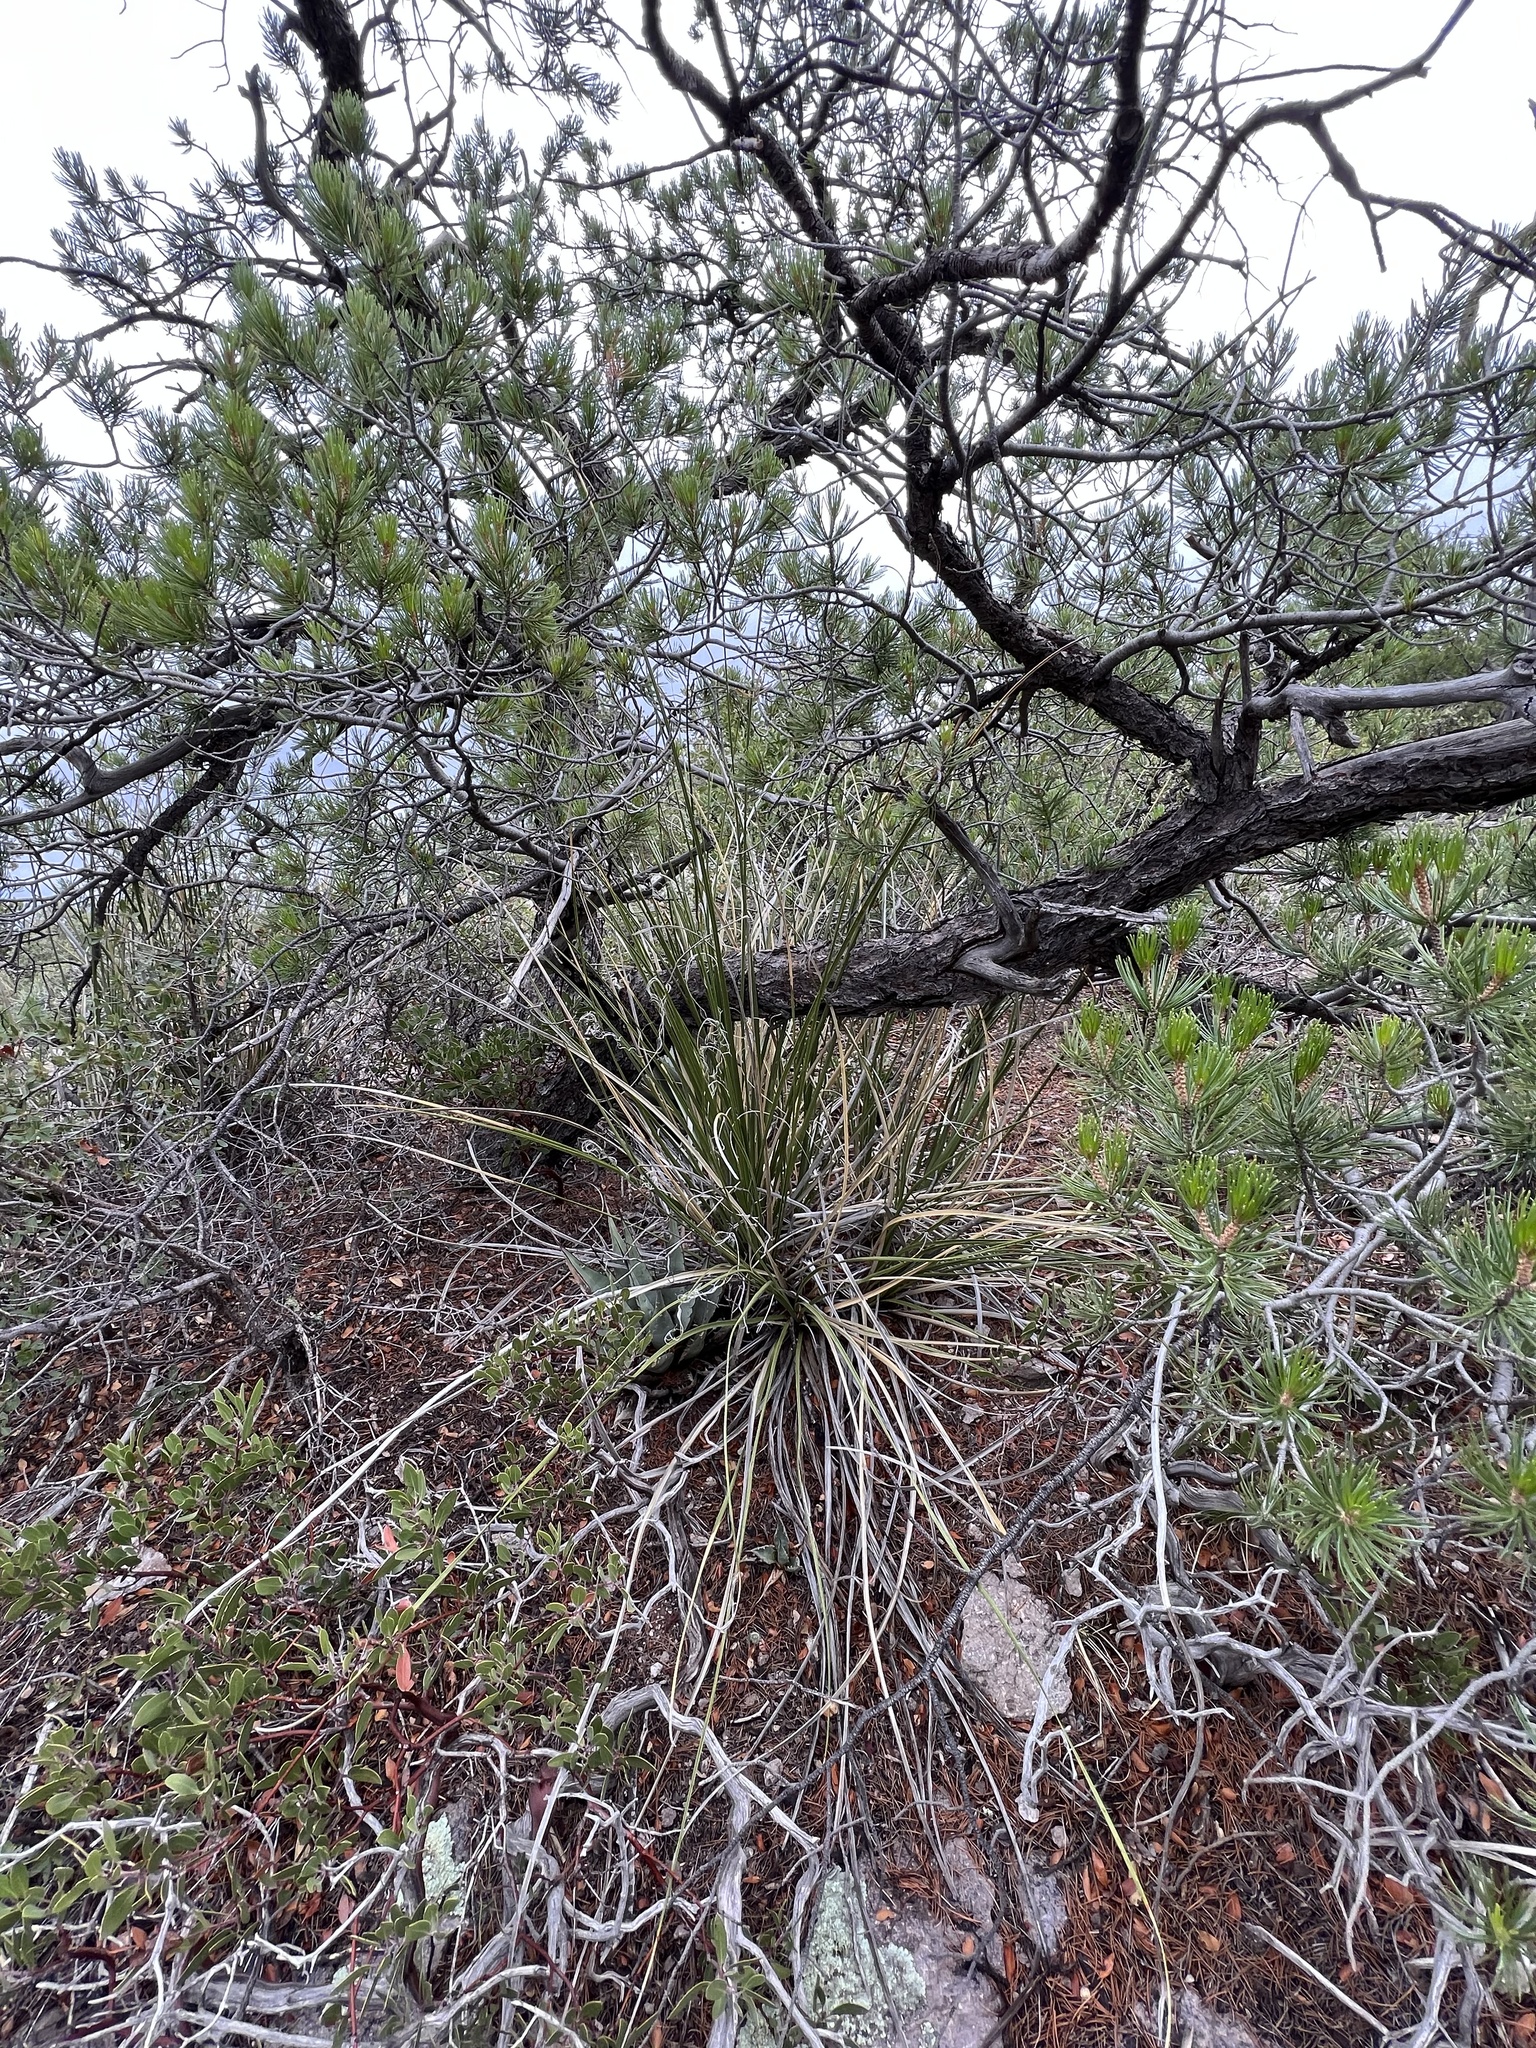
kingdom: Plantae
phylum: Tracheophyta
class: Liliopsida
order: Asparagales
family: Asparagaceae
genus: Nolina
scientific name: Nolina microcarpa
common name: Bear-grass
